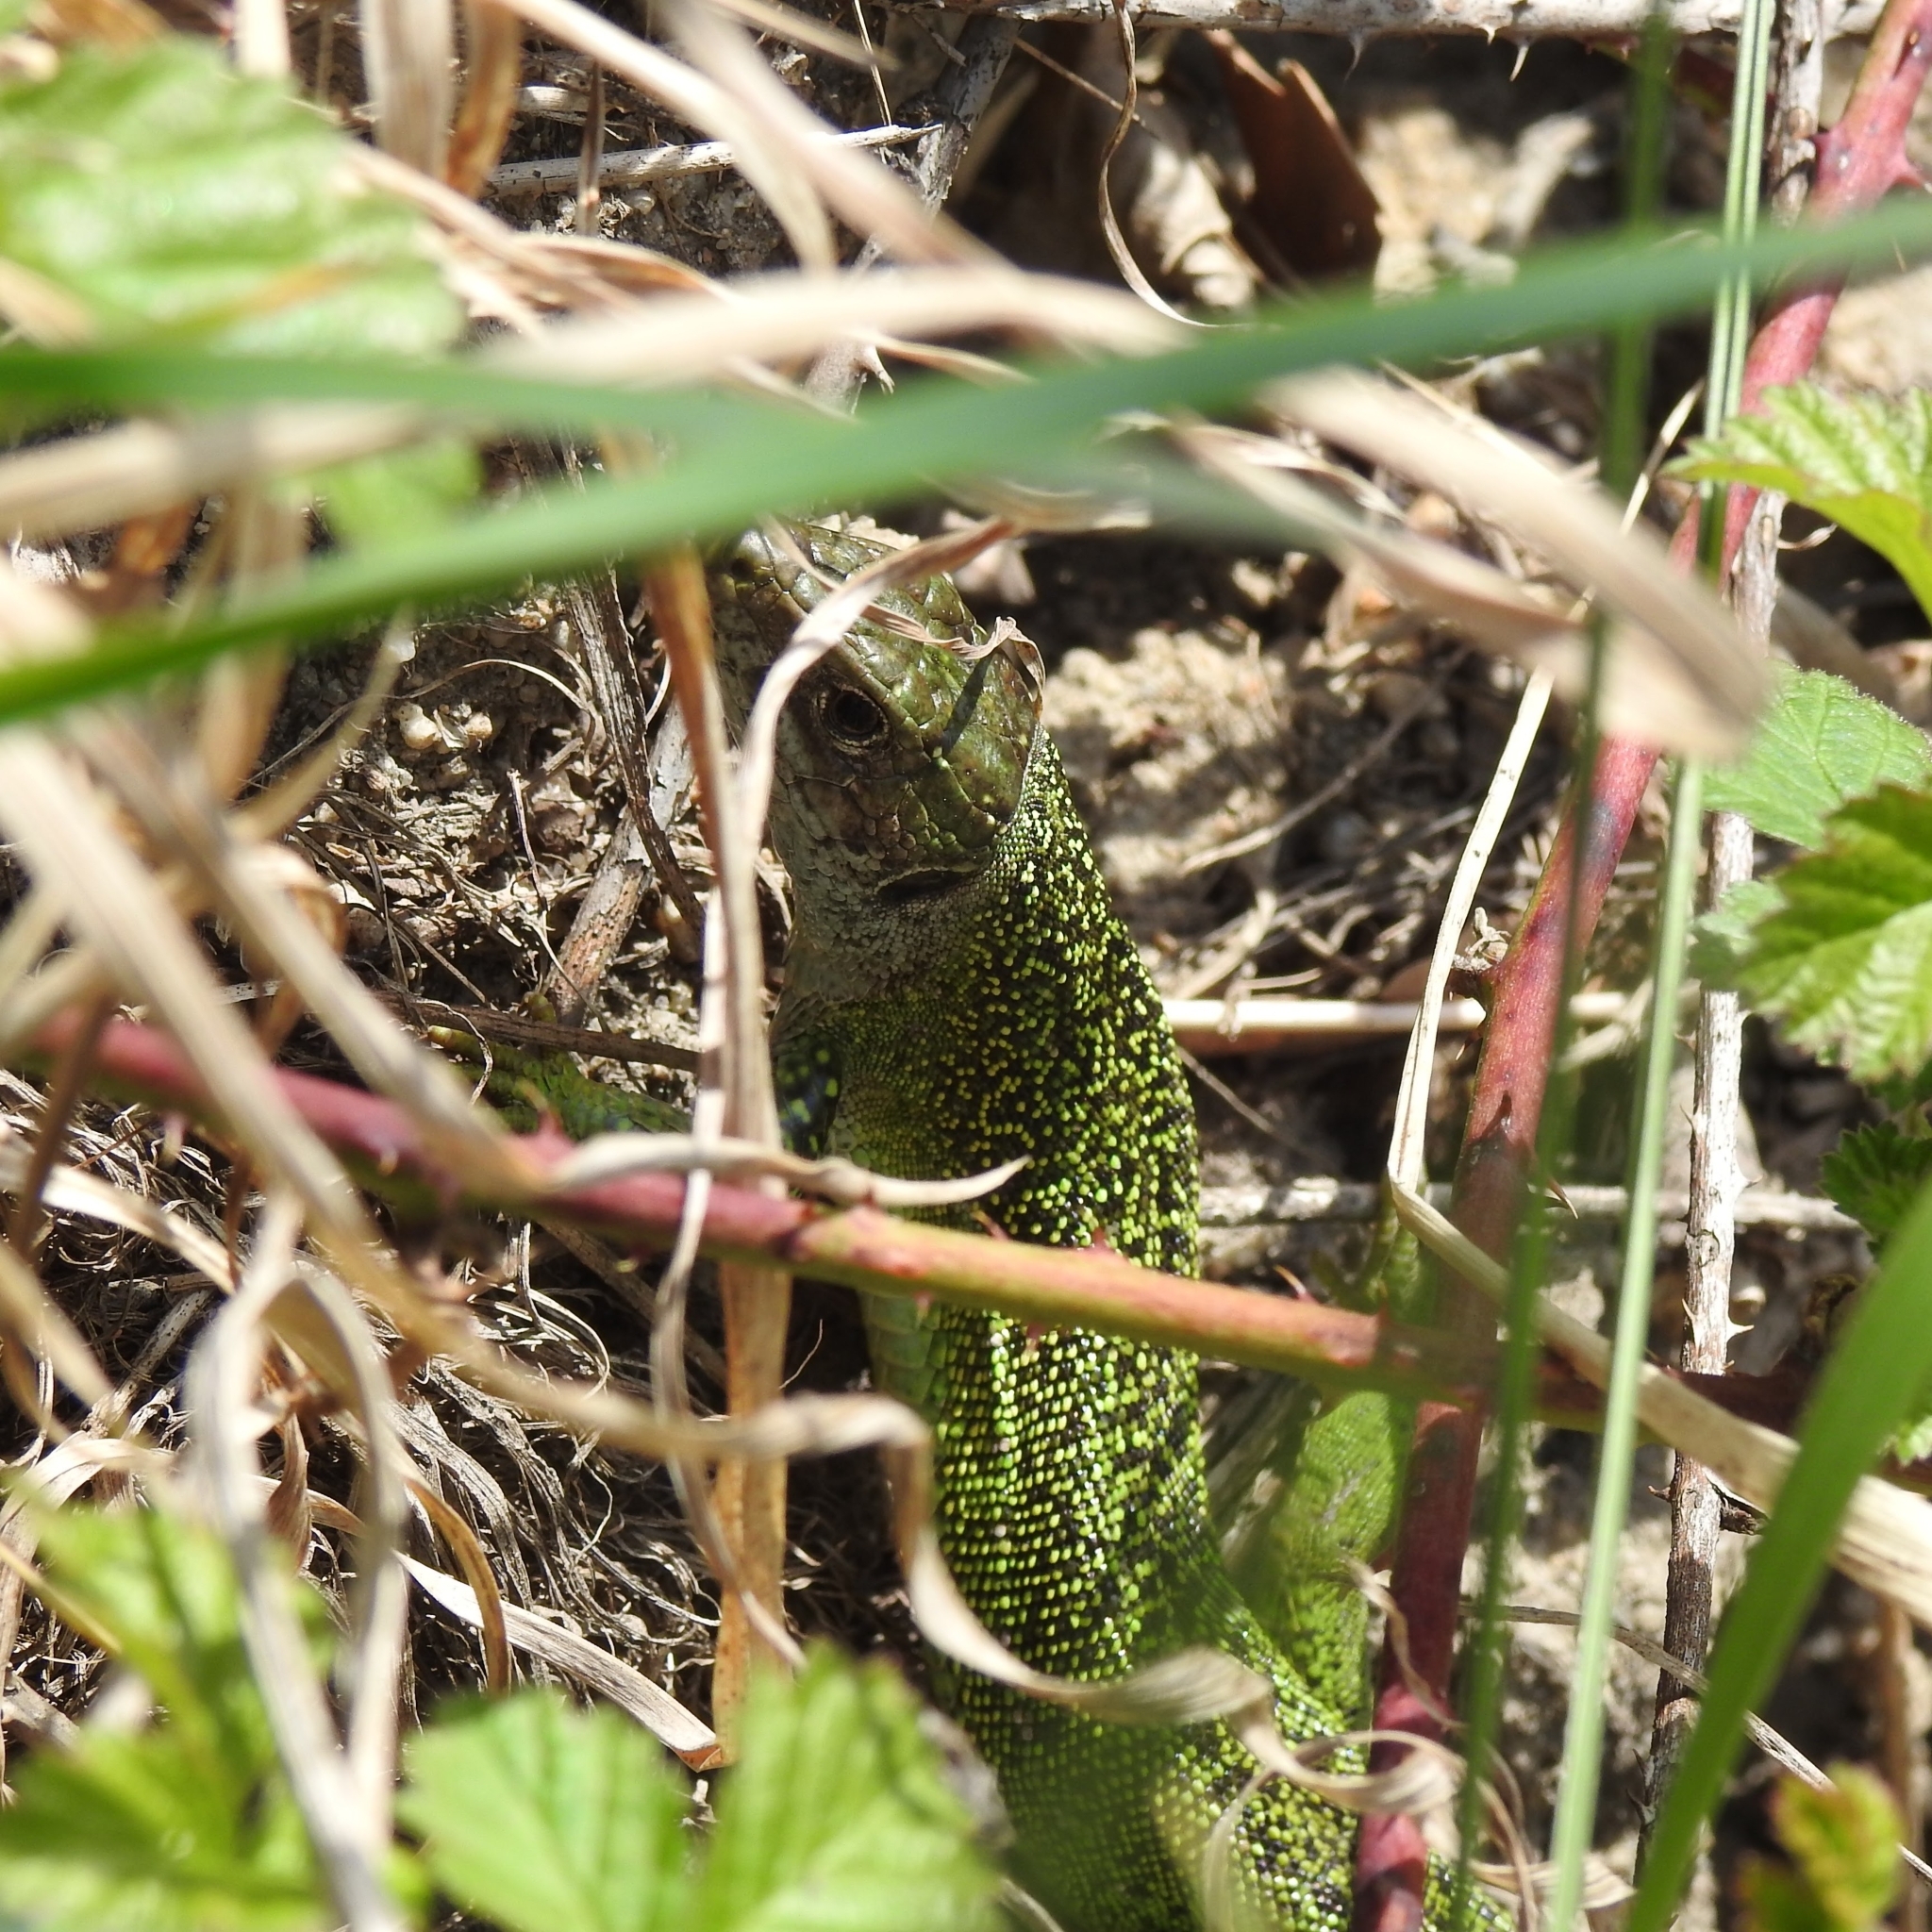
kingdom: Animalia
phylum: Chordata
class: Squamata
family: Lacertidae
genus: Lacerta
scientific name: Lacerta bilineata
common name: Western green lizard
